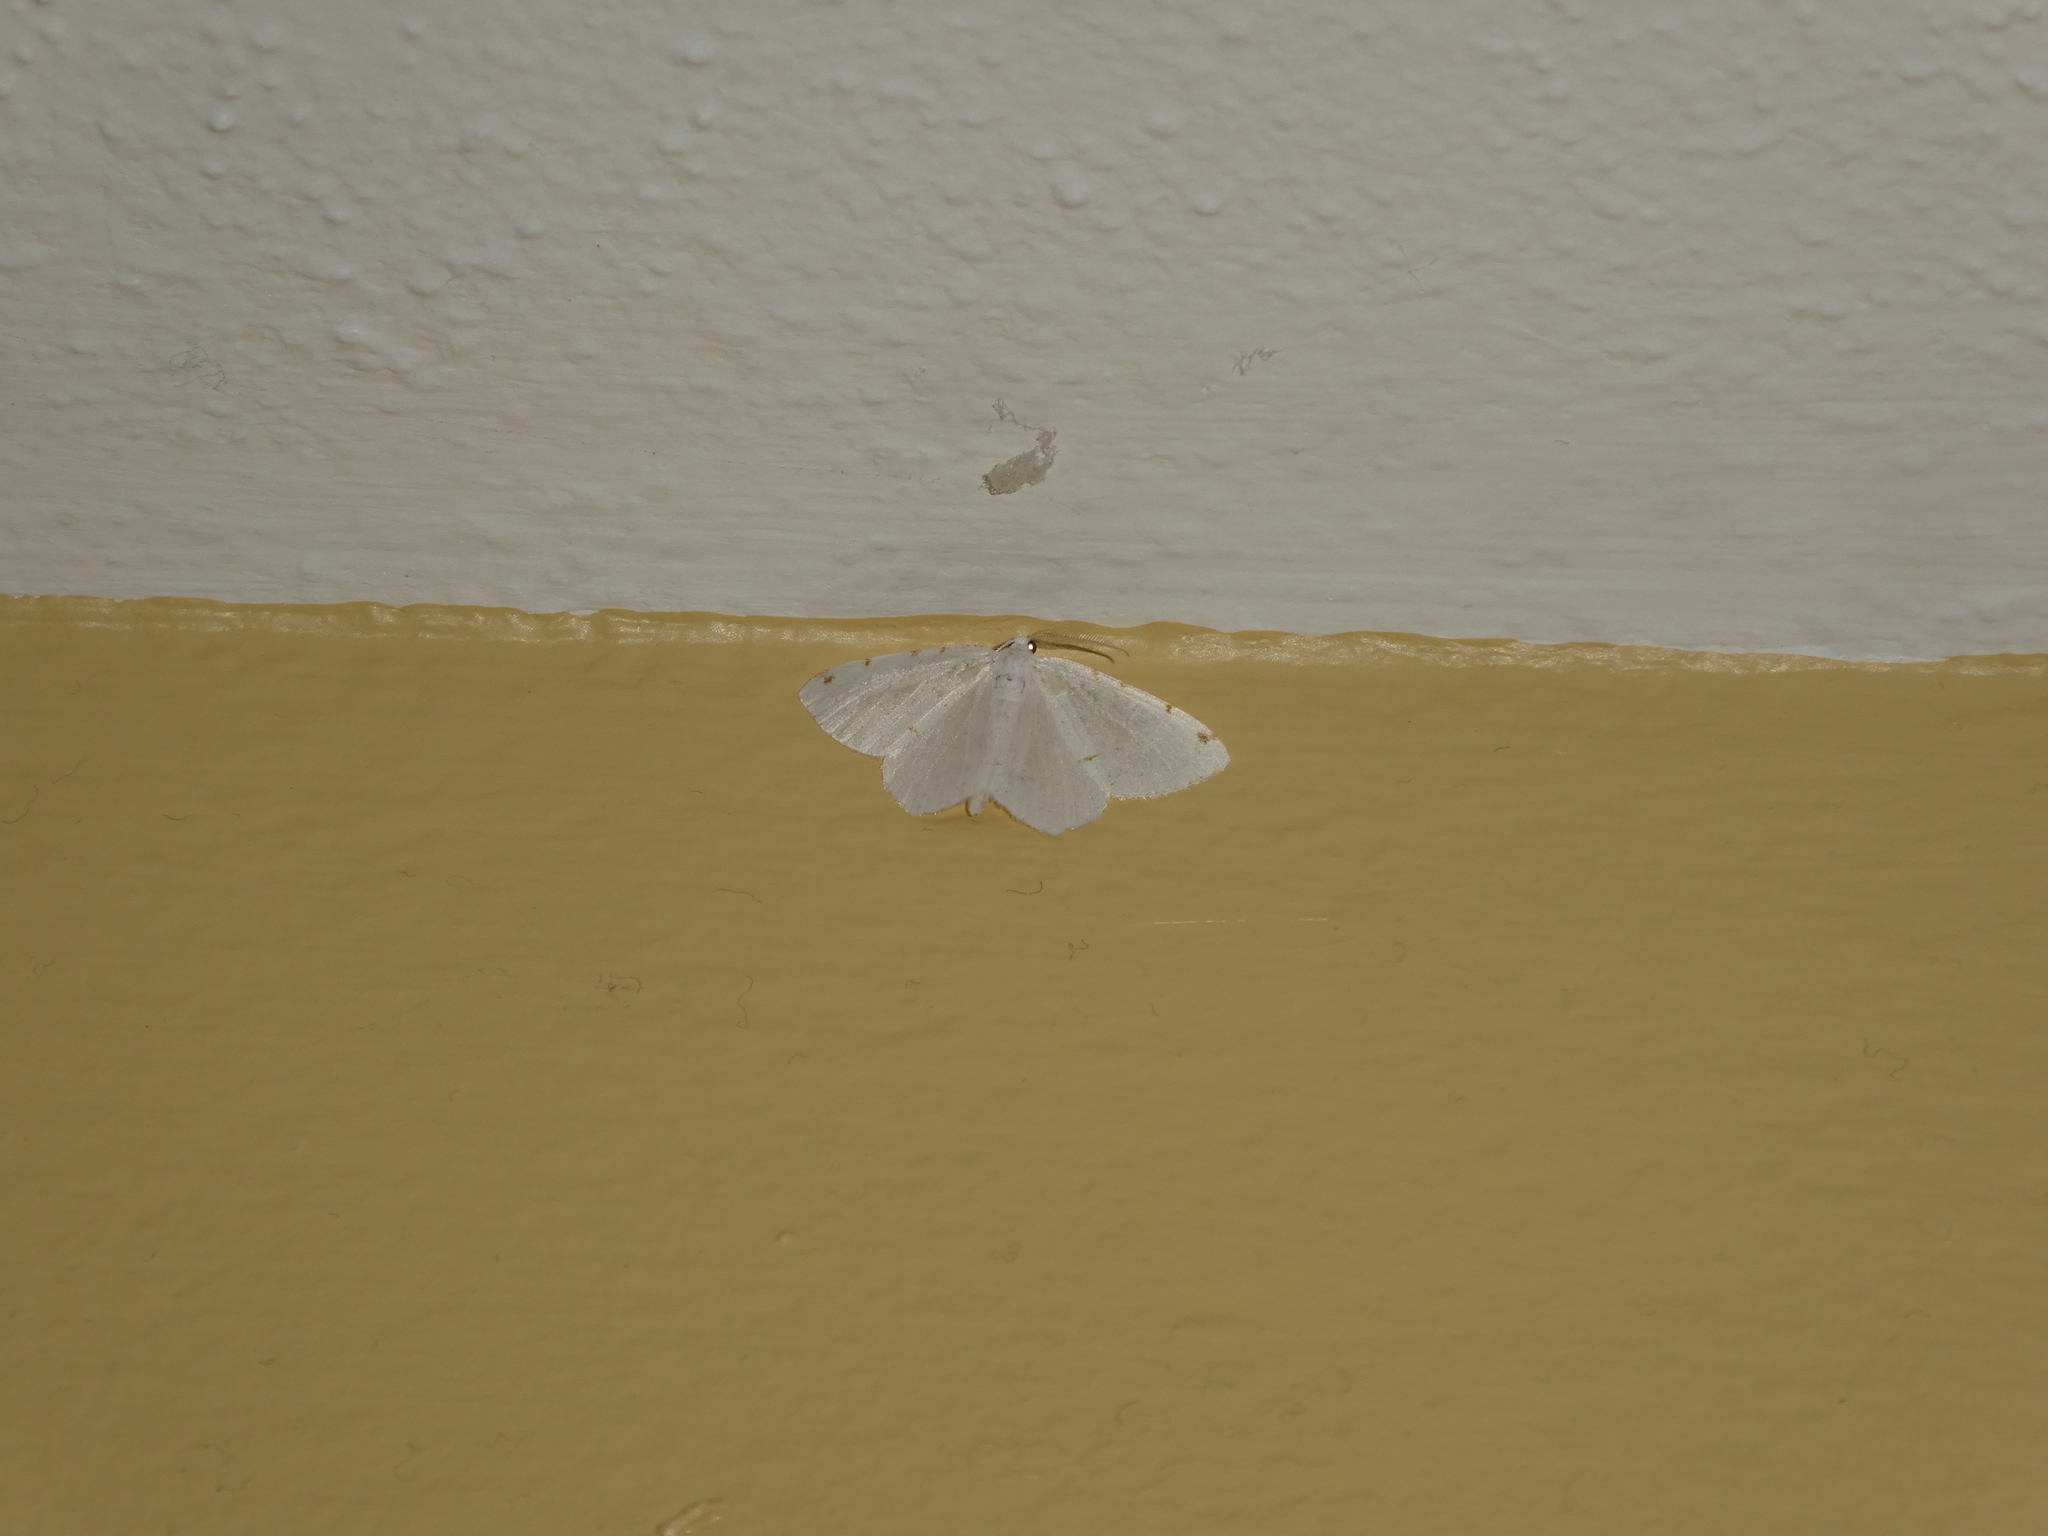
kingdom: Animalia
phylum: Arthropoda
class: Insecta
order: Lepidoptera
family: Geometridae
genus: Macaria
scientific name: Macaria pustularia
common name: Lesser maple spanworm moth
